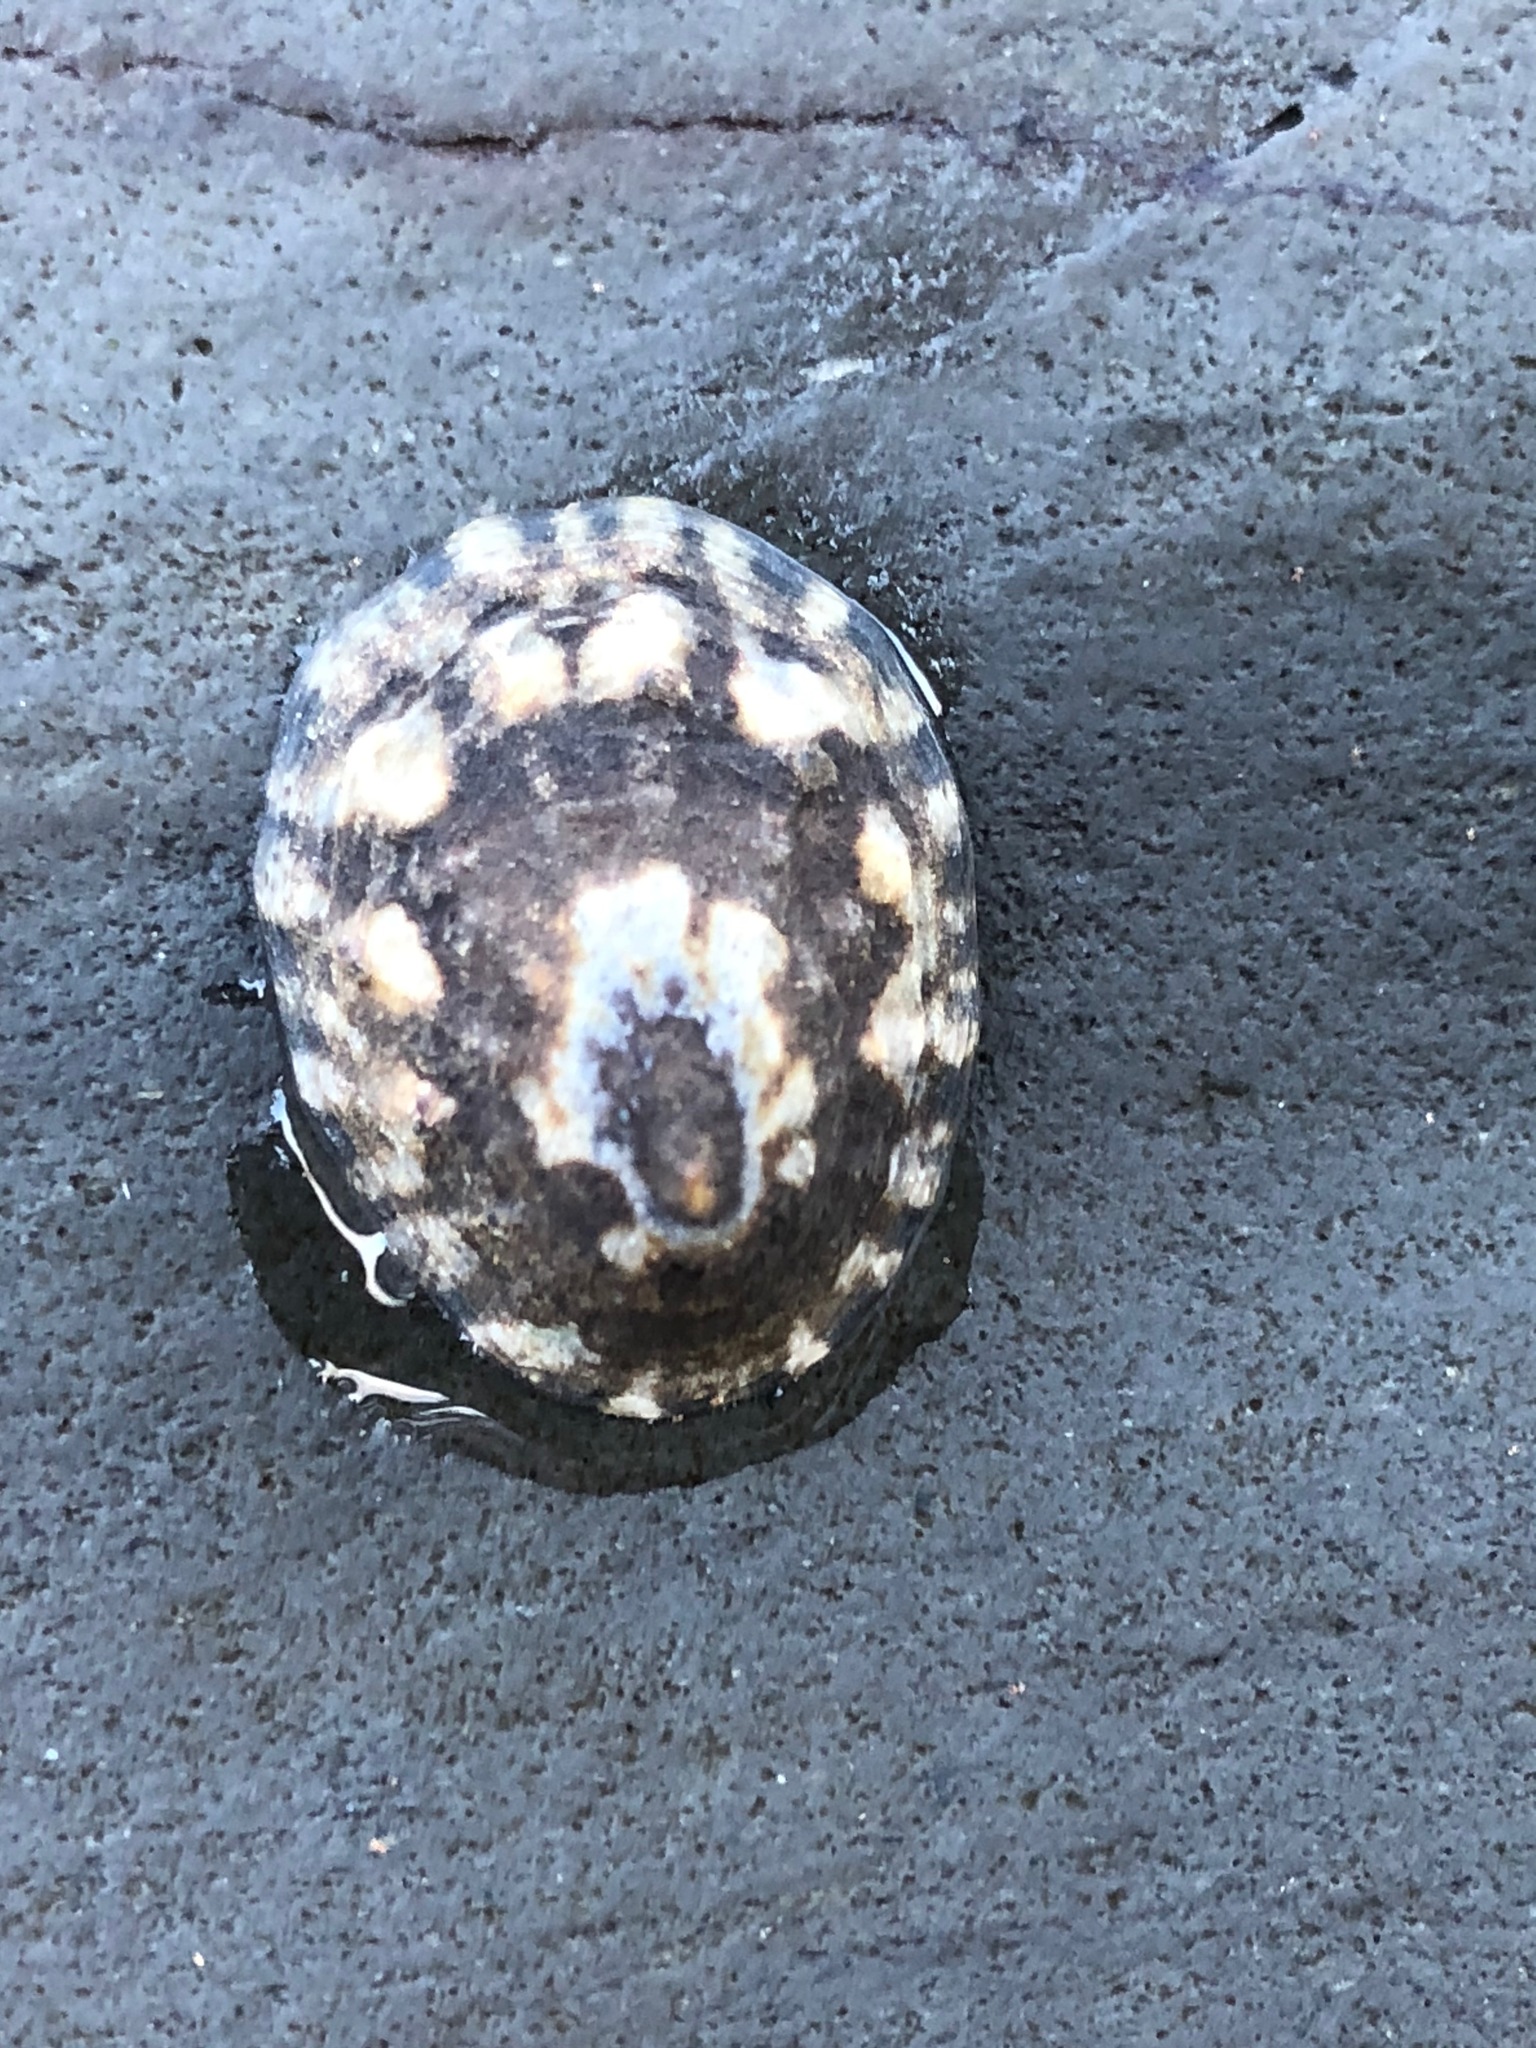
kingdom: Animalia
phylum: Mollusca
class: Gastropoda
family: Lottiidae
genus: Lottia
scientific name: Lottia
